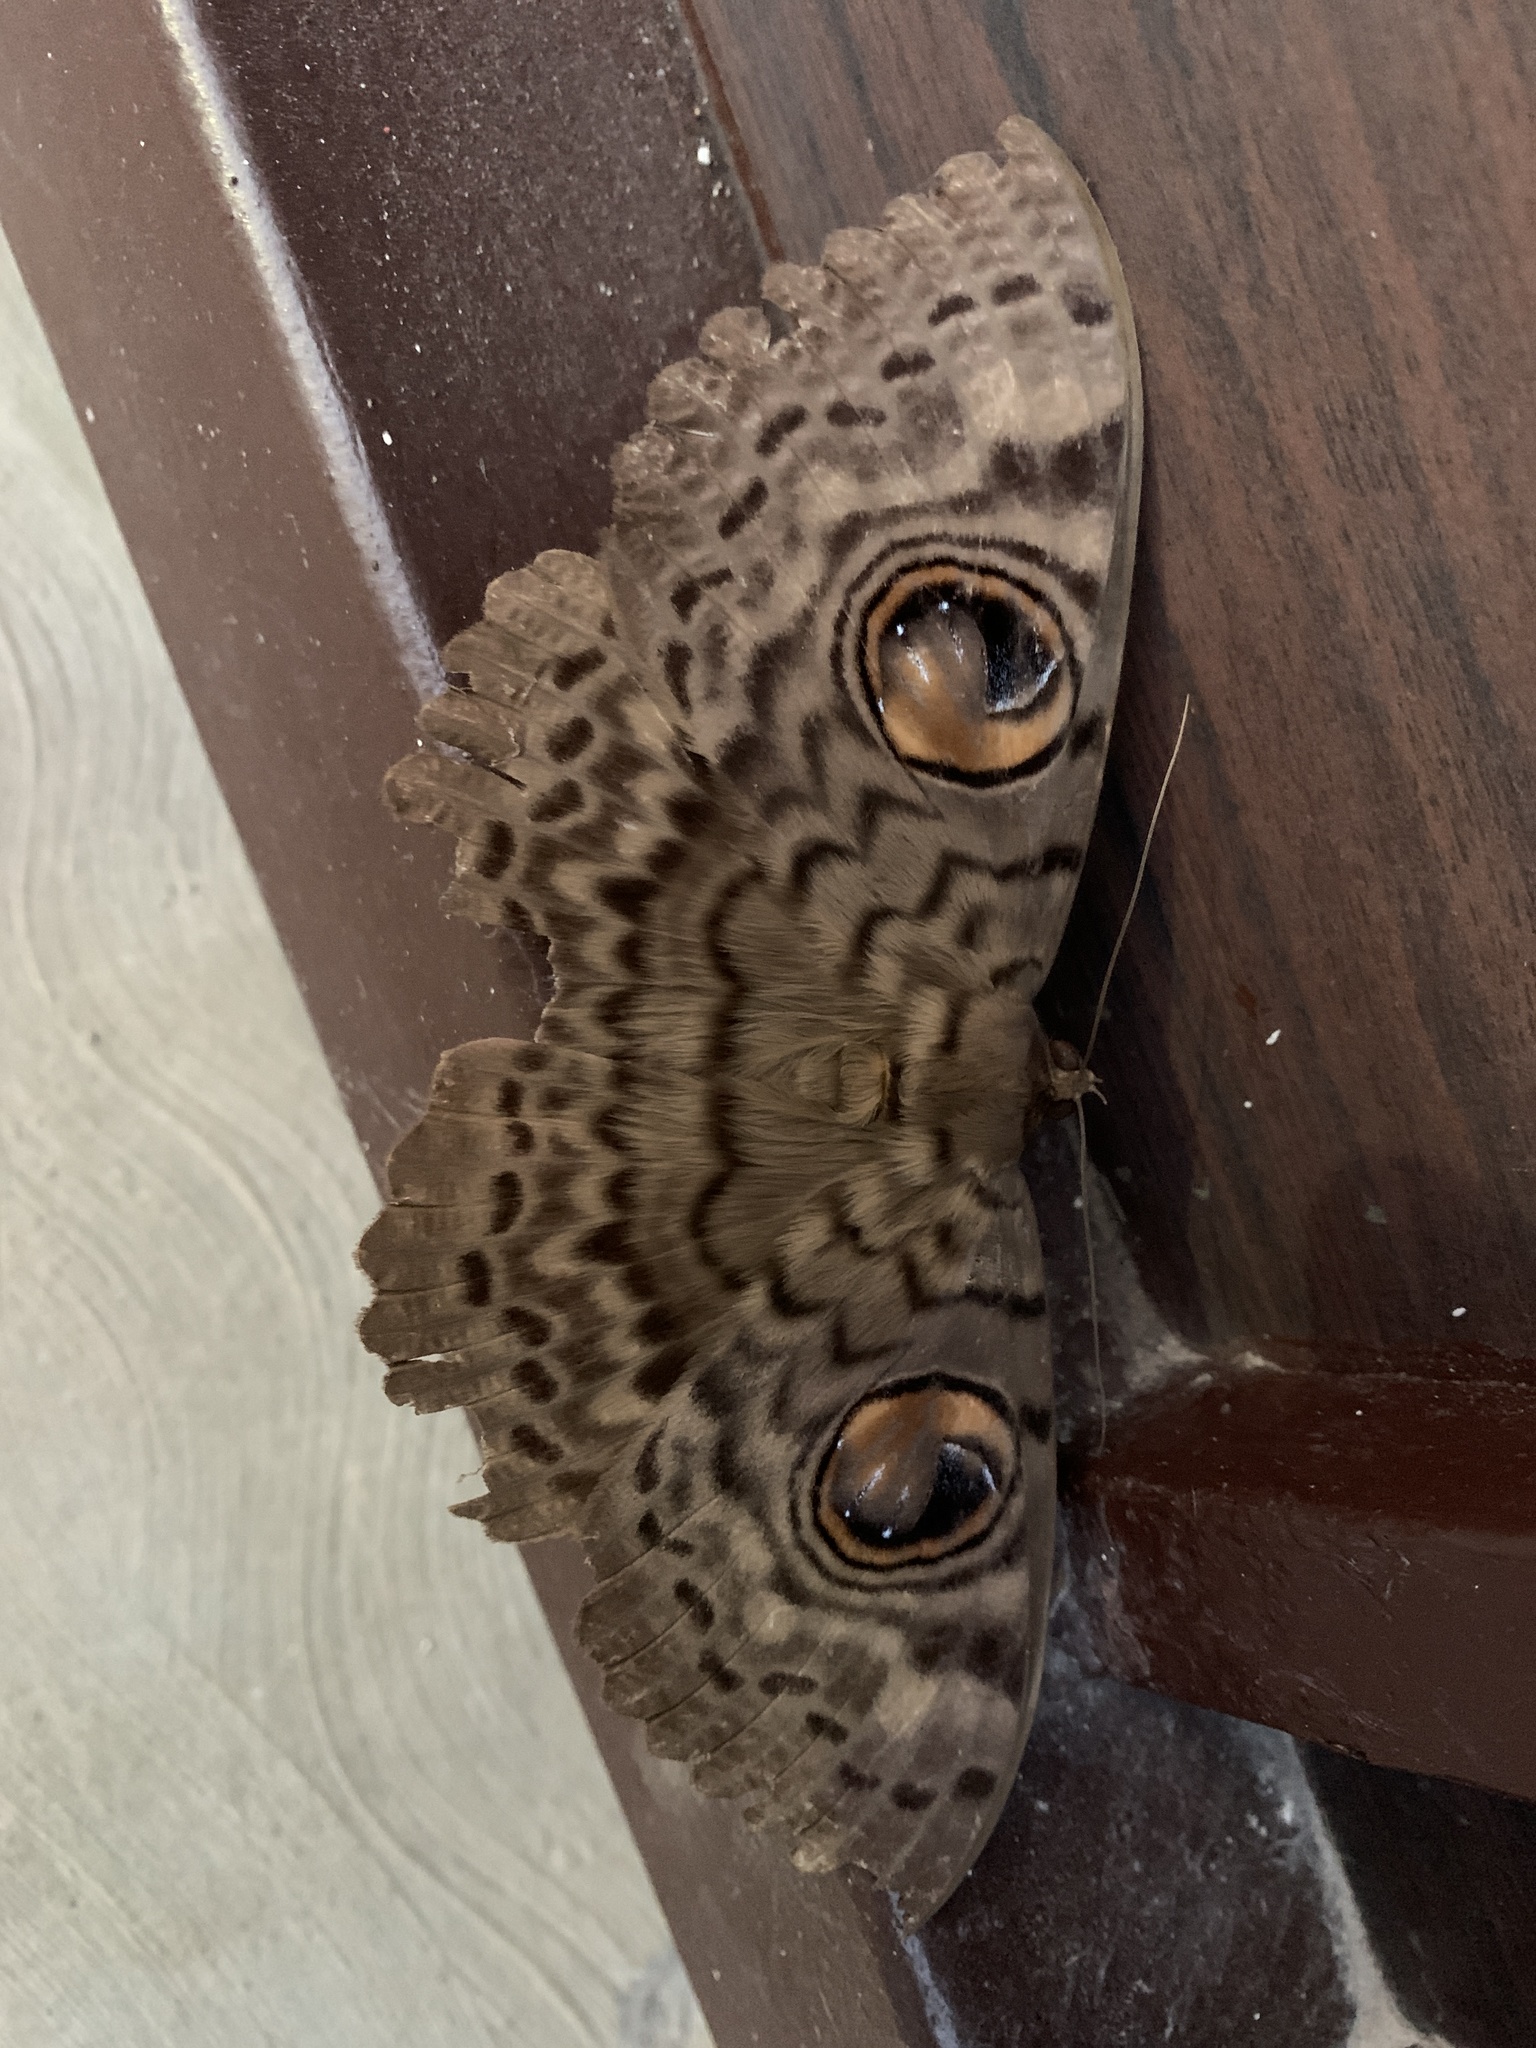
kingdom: Animalia
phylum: Arthropoda
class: Insecta
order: Lepidoptera
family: Erebidae
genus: Erebus
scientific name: Erebus macrops
